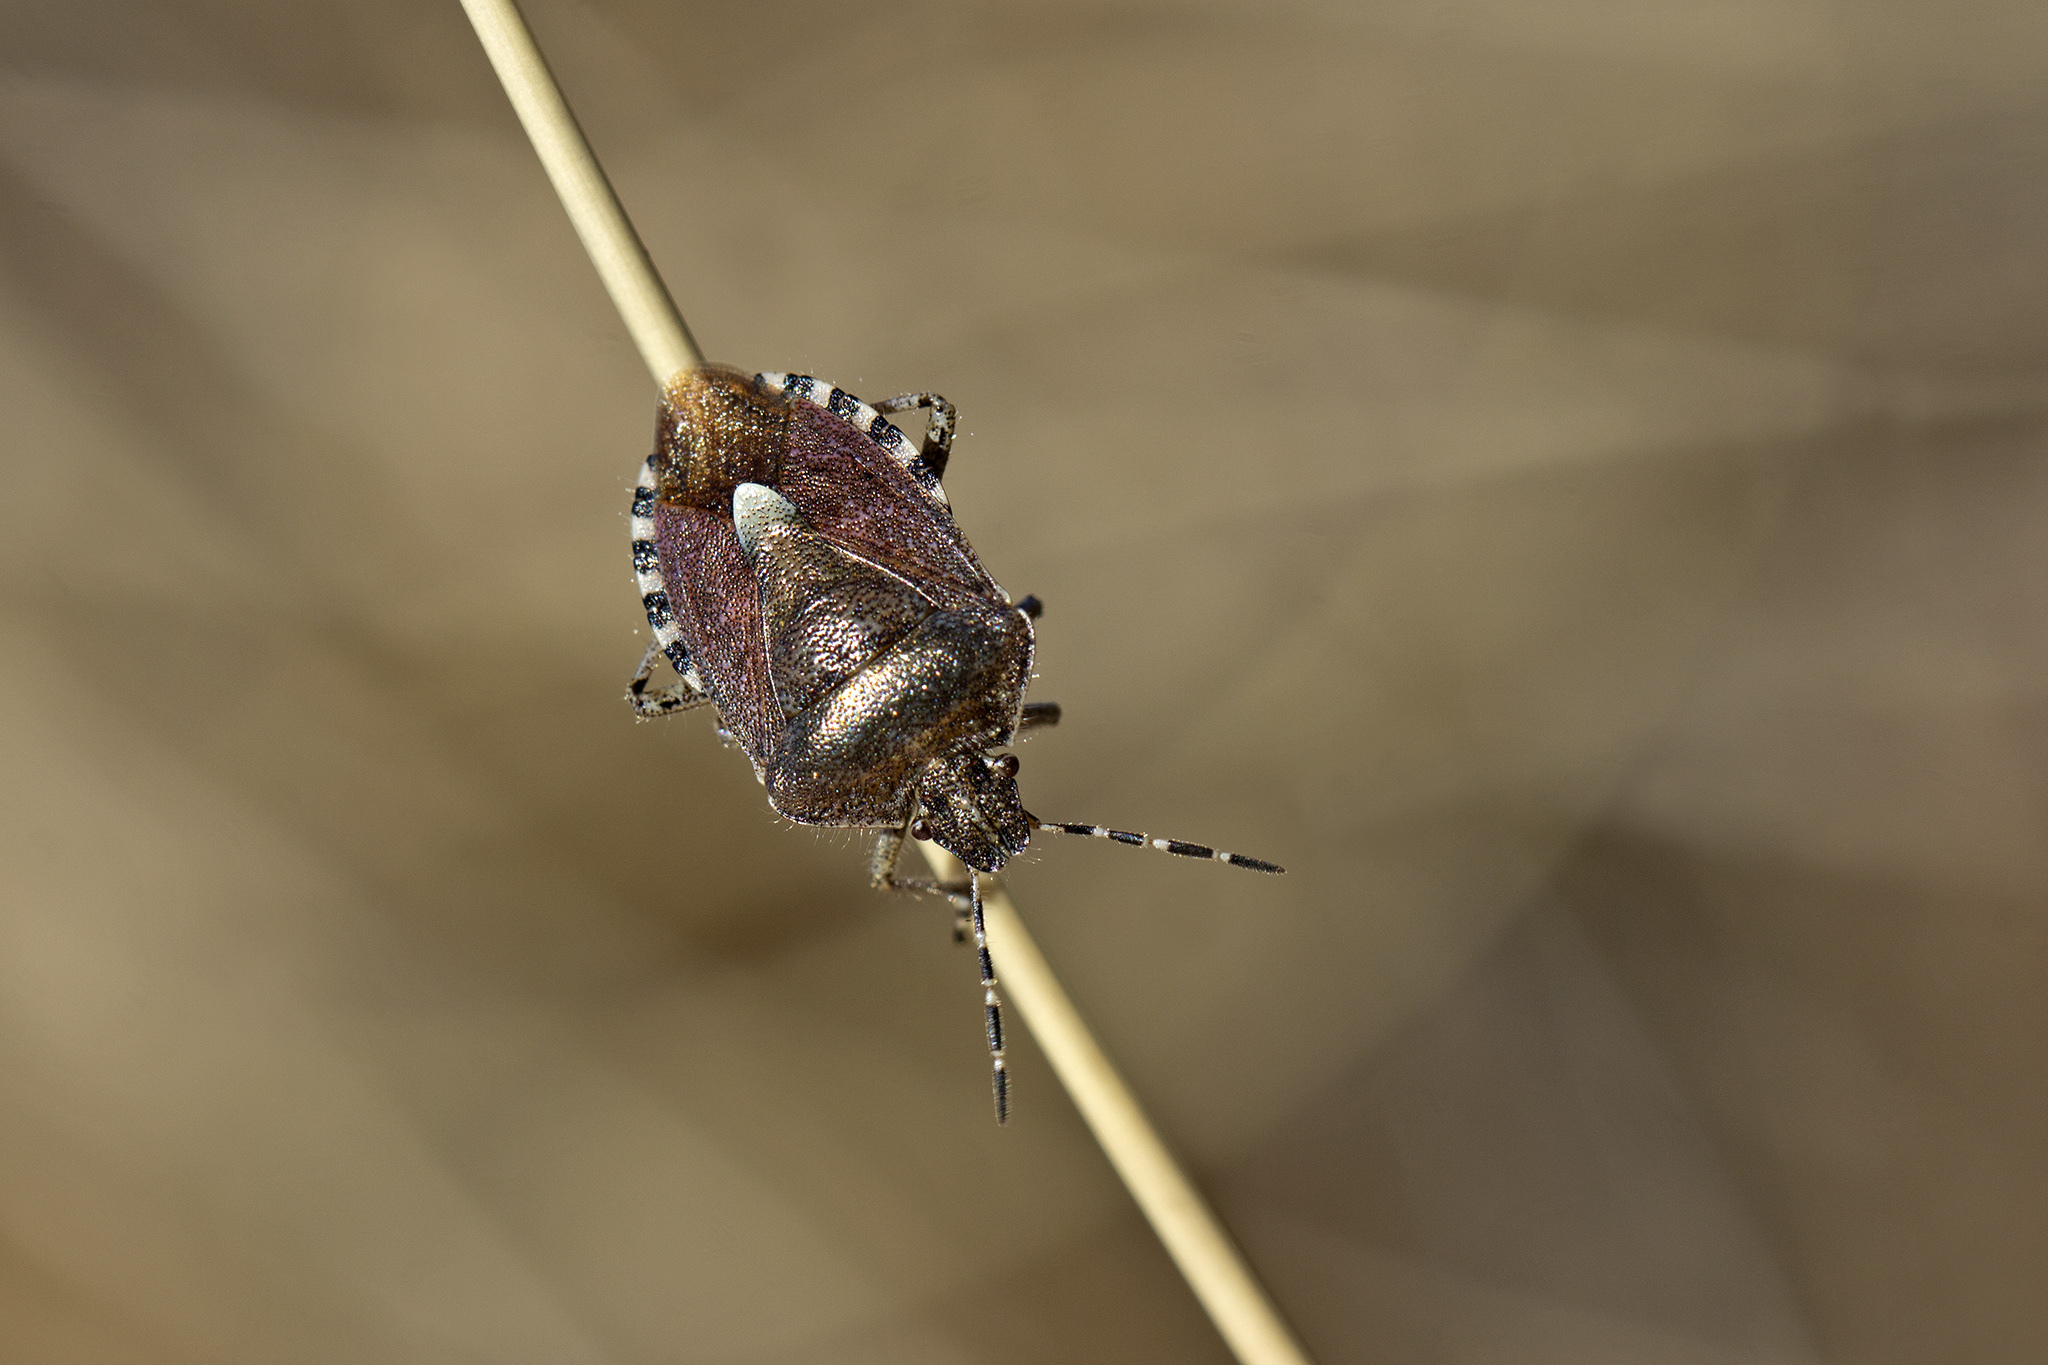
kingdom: Animalia
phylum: Arthropoda
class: Insecta
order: Hemiptera
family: Pentatomidae
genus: Dolycoris
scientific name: Dolycoris baccarum
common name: Sloe bug
